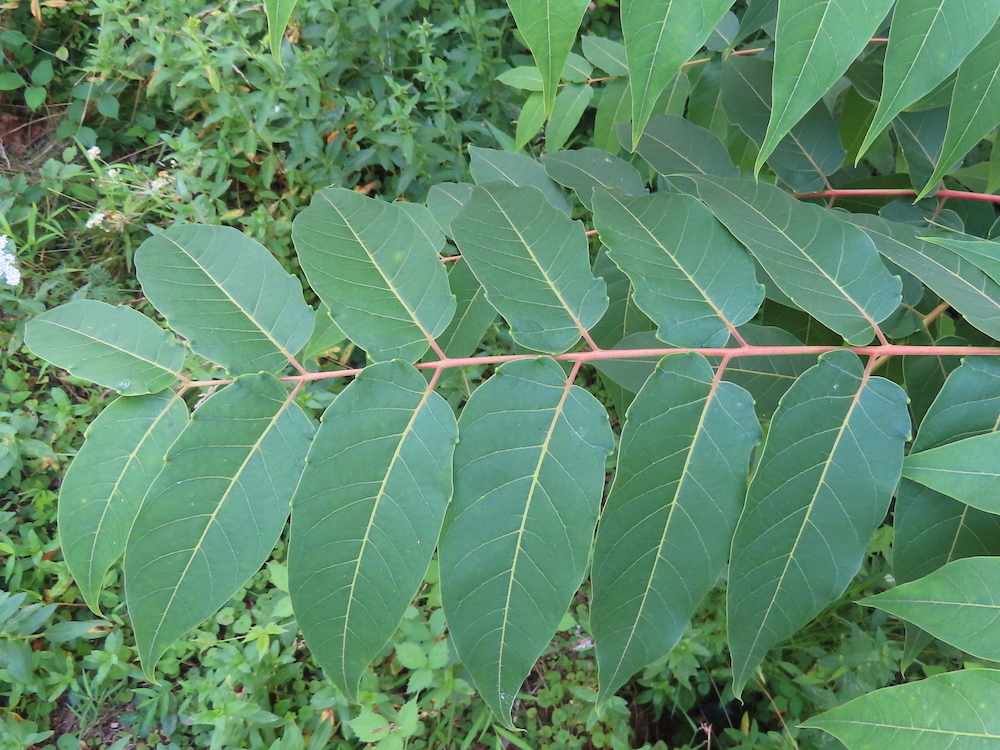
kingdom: Plantae
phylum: Tracheophyta
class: Magnoliopsida
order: Sapindales
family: Simaroubaceae
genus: Ailanthus
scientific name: Ailanthus altissima
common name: Tree-of-heaven
